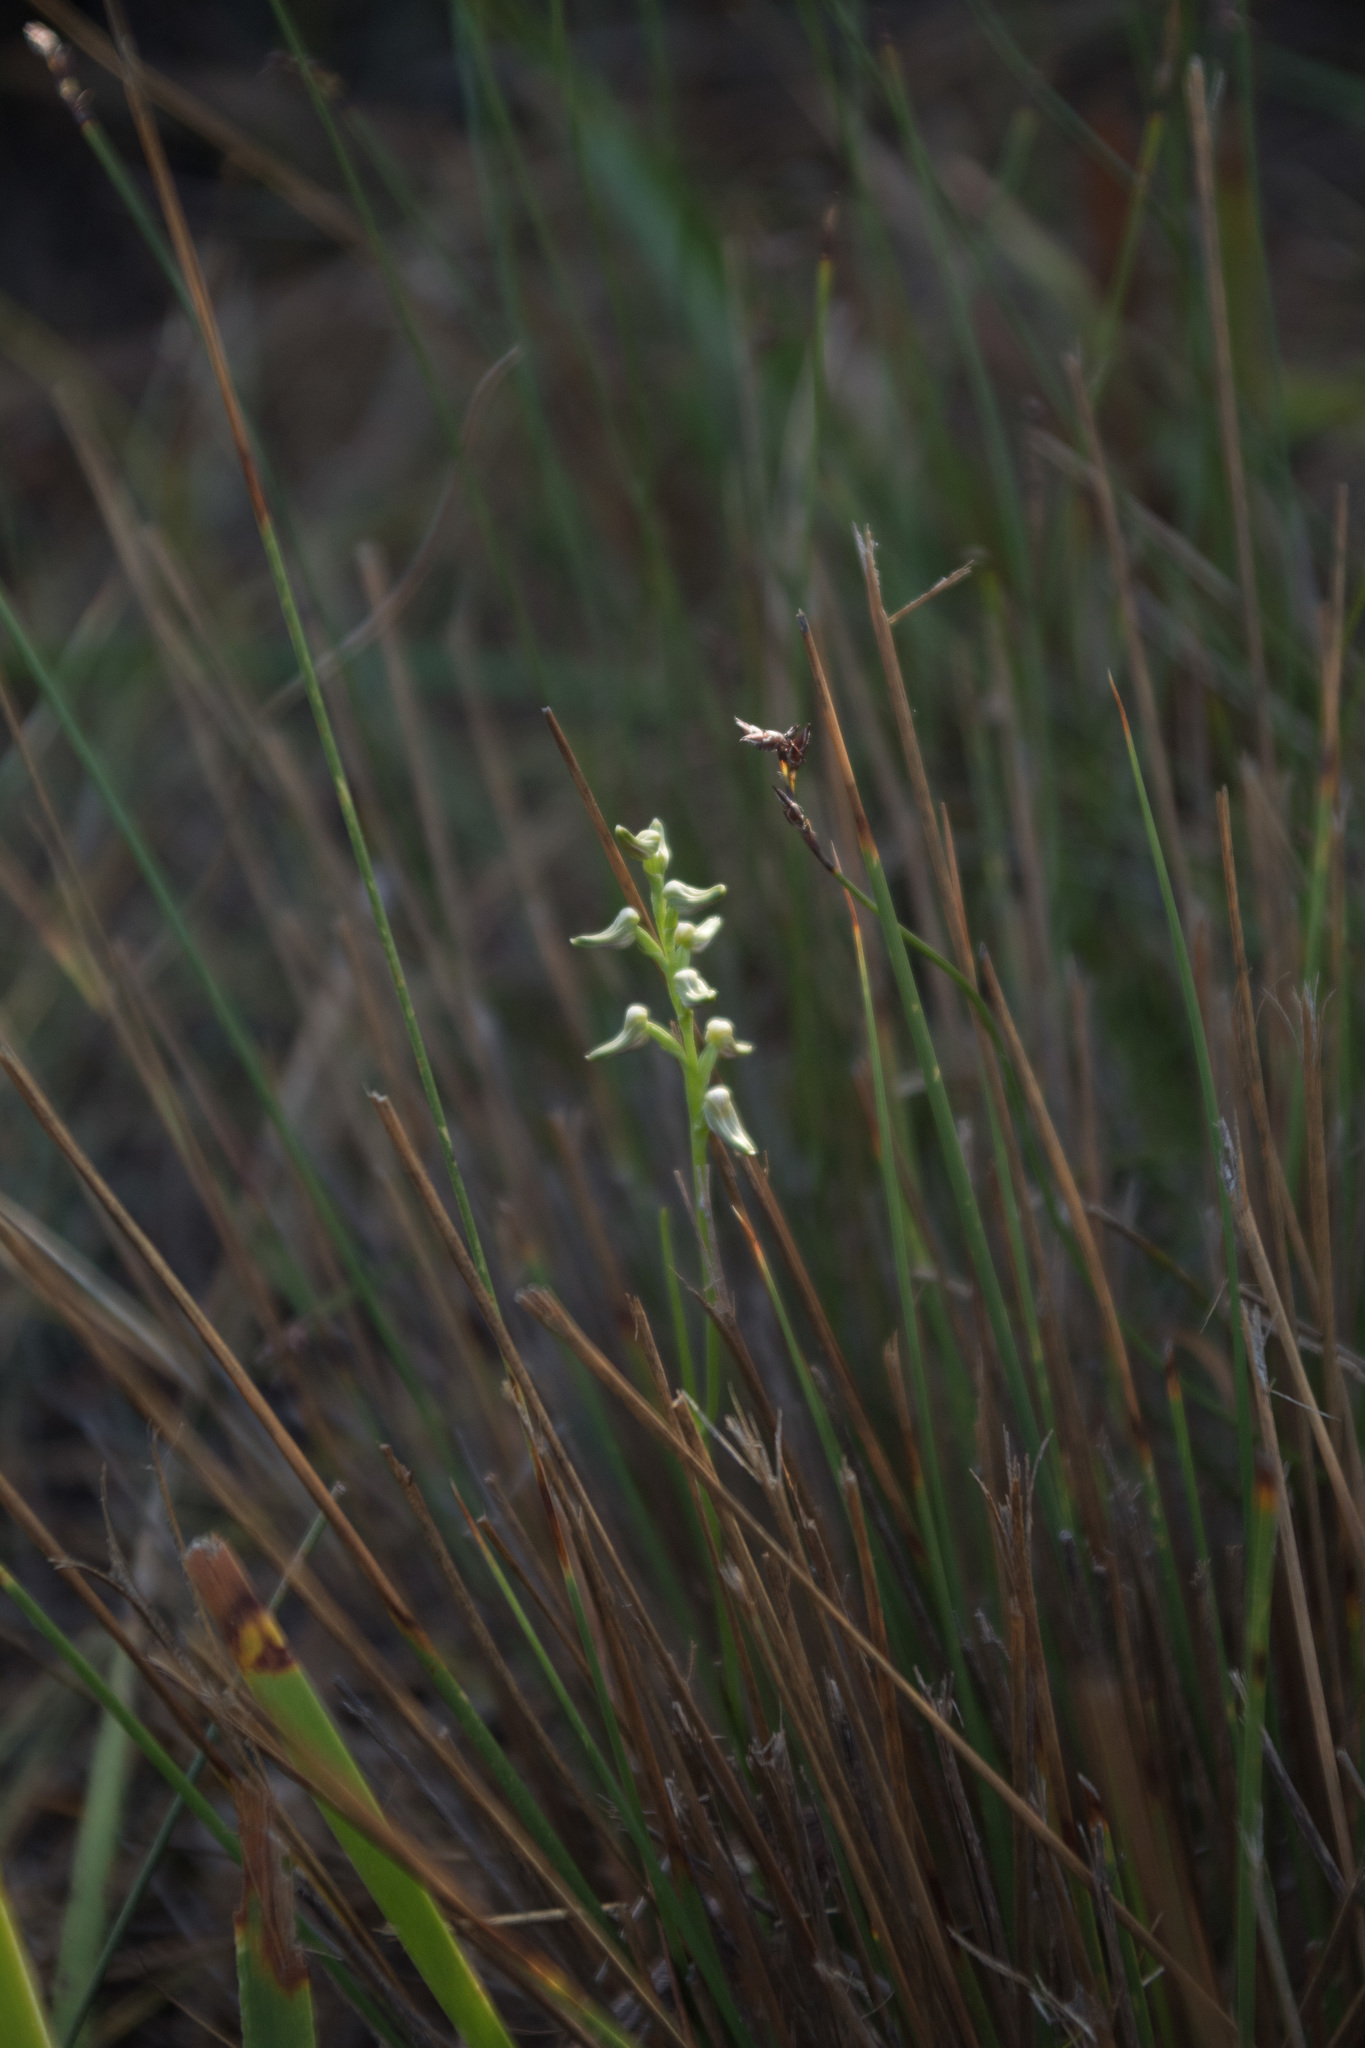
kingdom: Plantae
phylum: Tracheophyta
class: Liliopsida
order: Asparagales
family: Orchidaceae
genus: Prasophyllum
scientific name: Prasophyllum parvifolium
